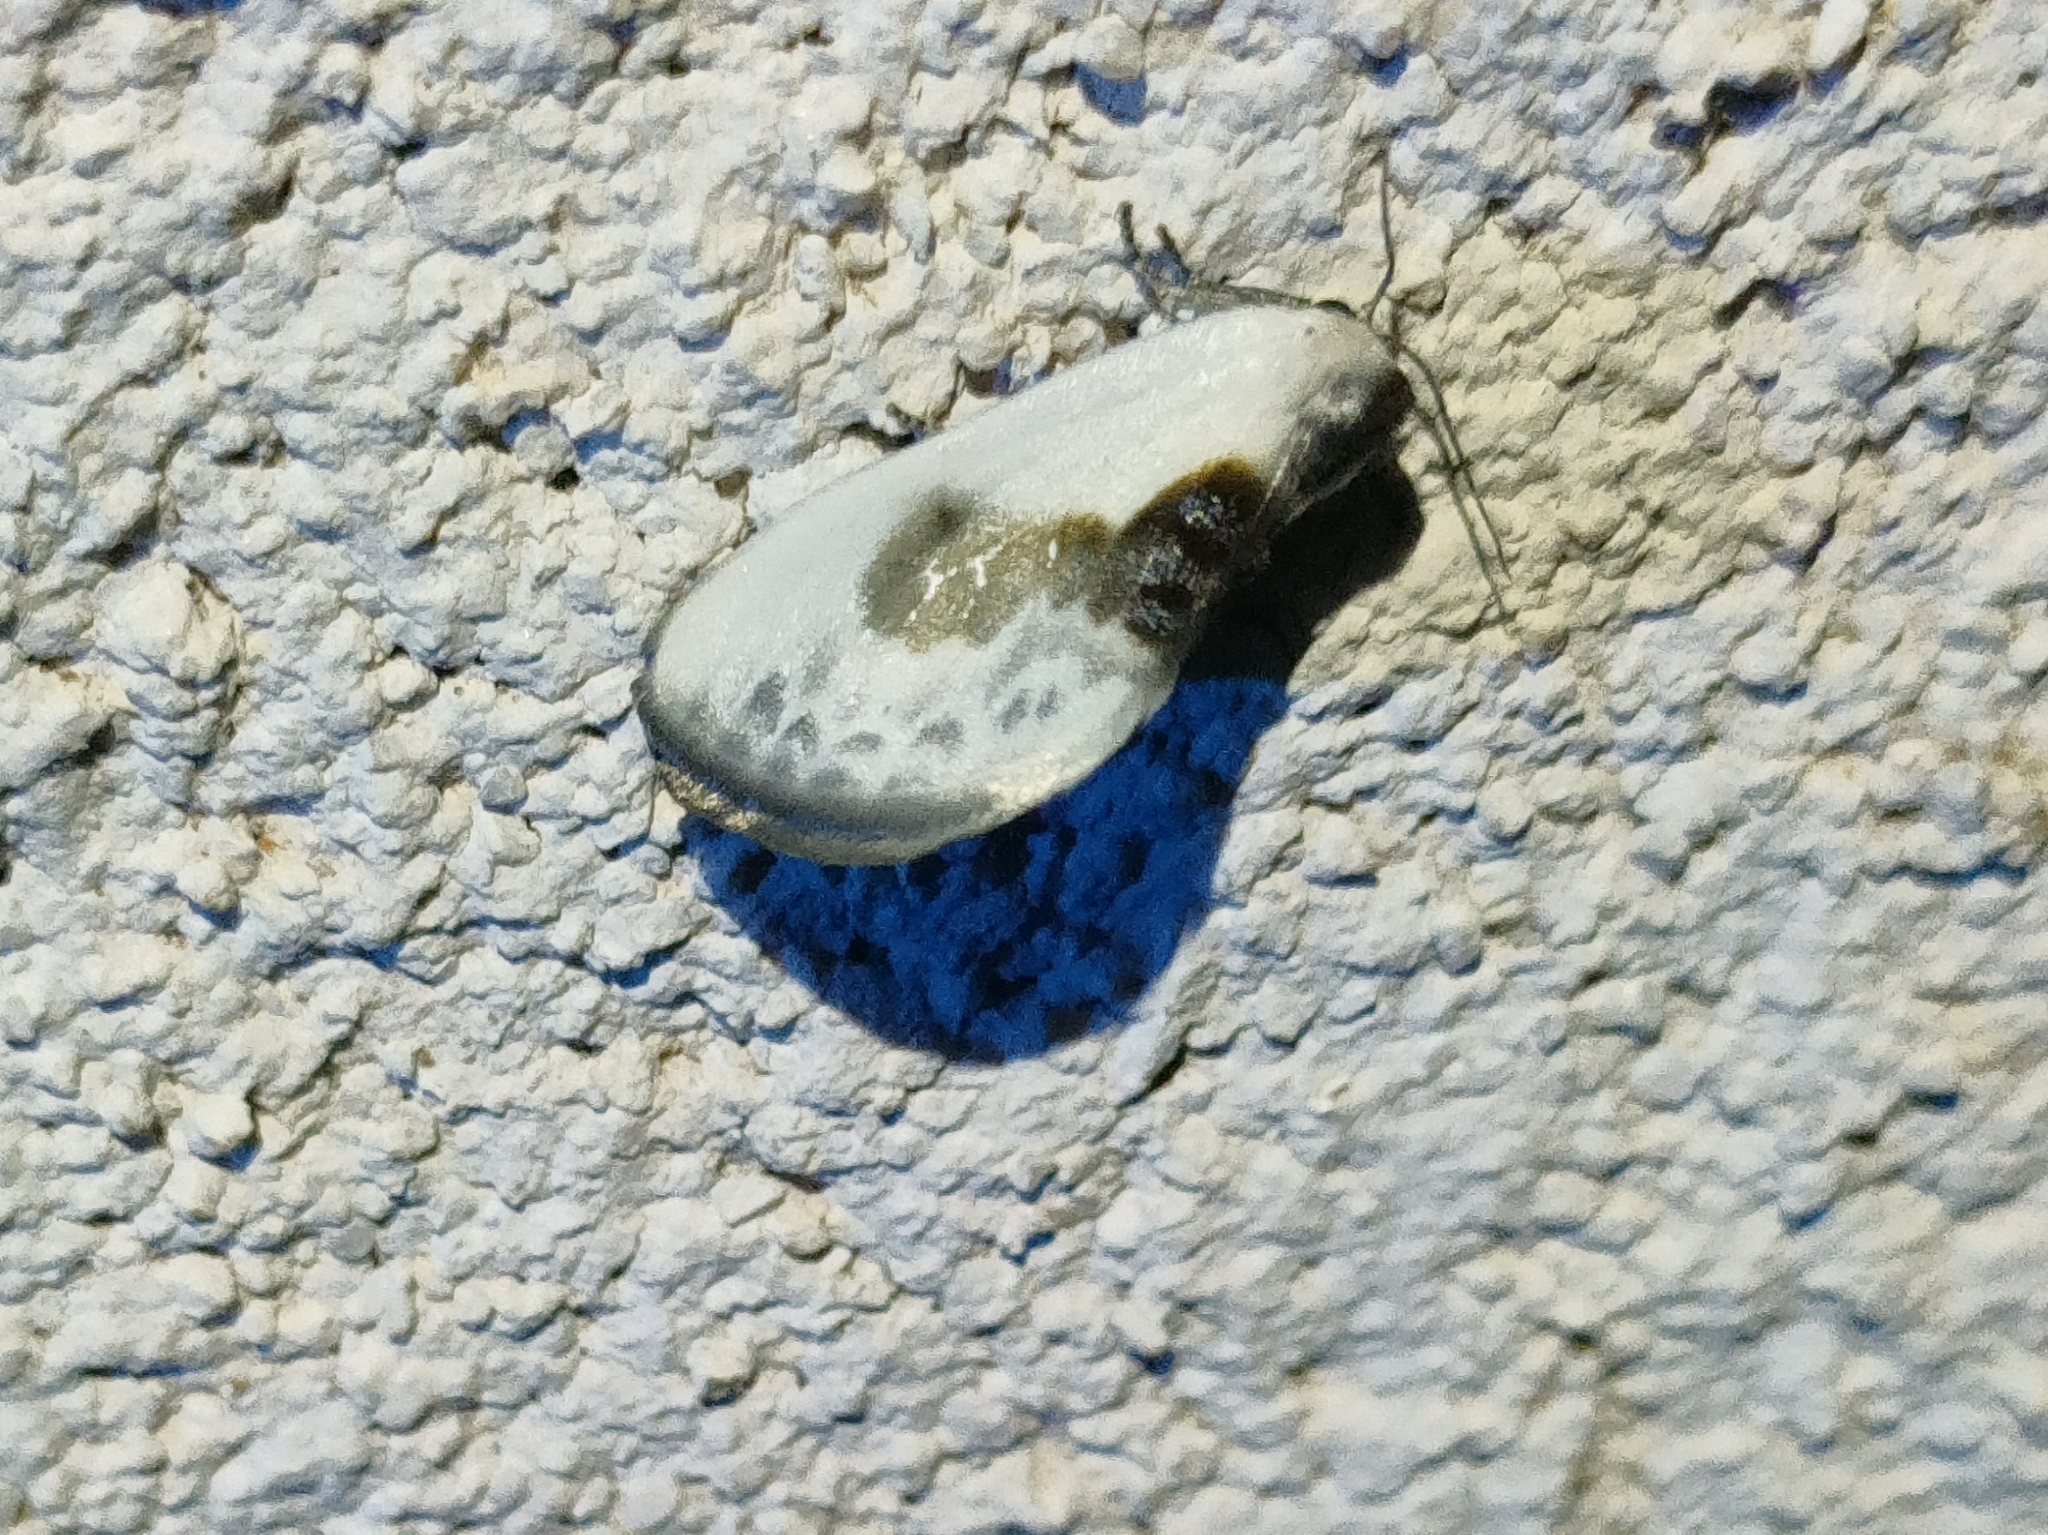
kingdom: Animalia
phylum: Arthropoda
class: Insecta
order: Lepidoptera
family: Drepanidae
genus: Cilix
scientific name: Cilix glaucata
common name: Chinese character
